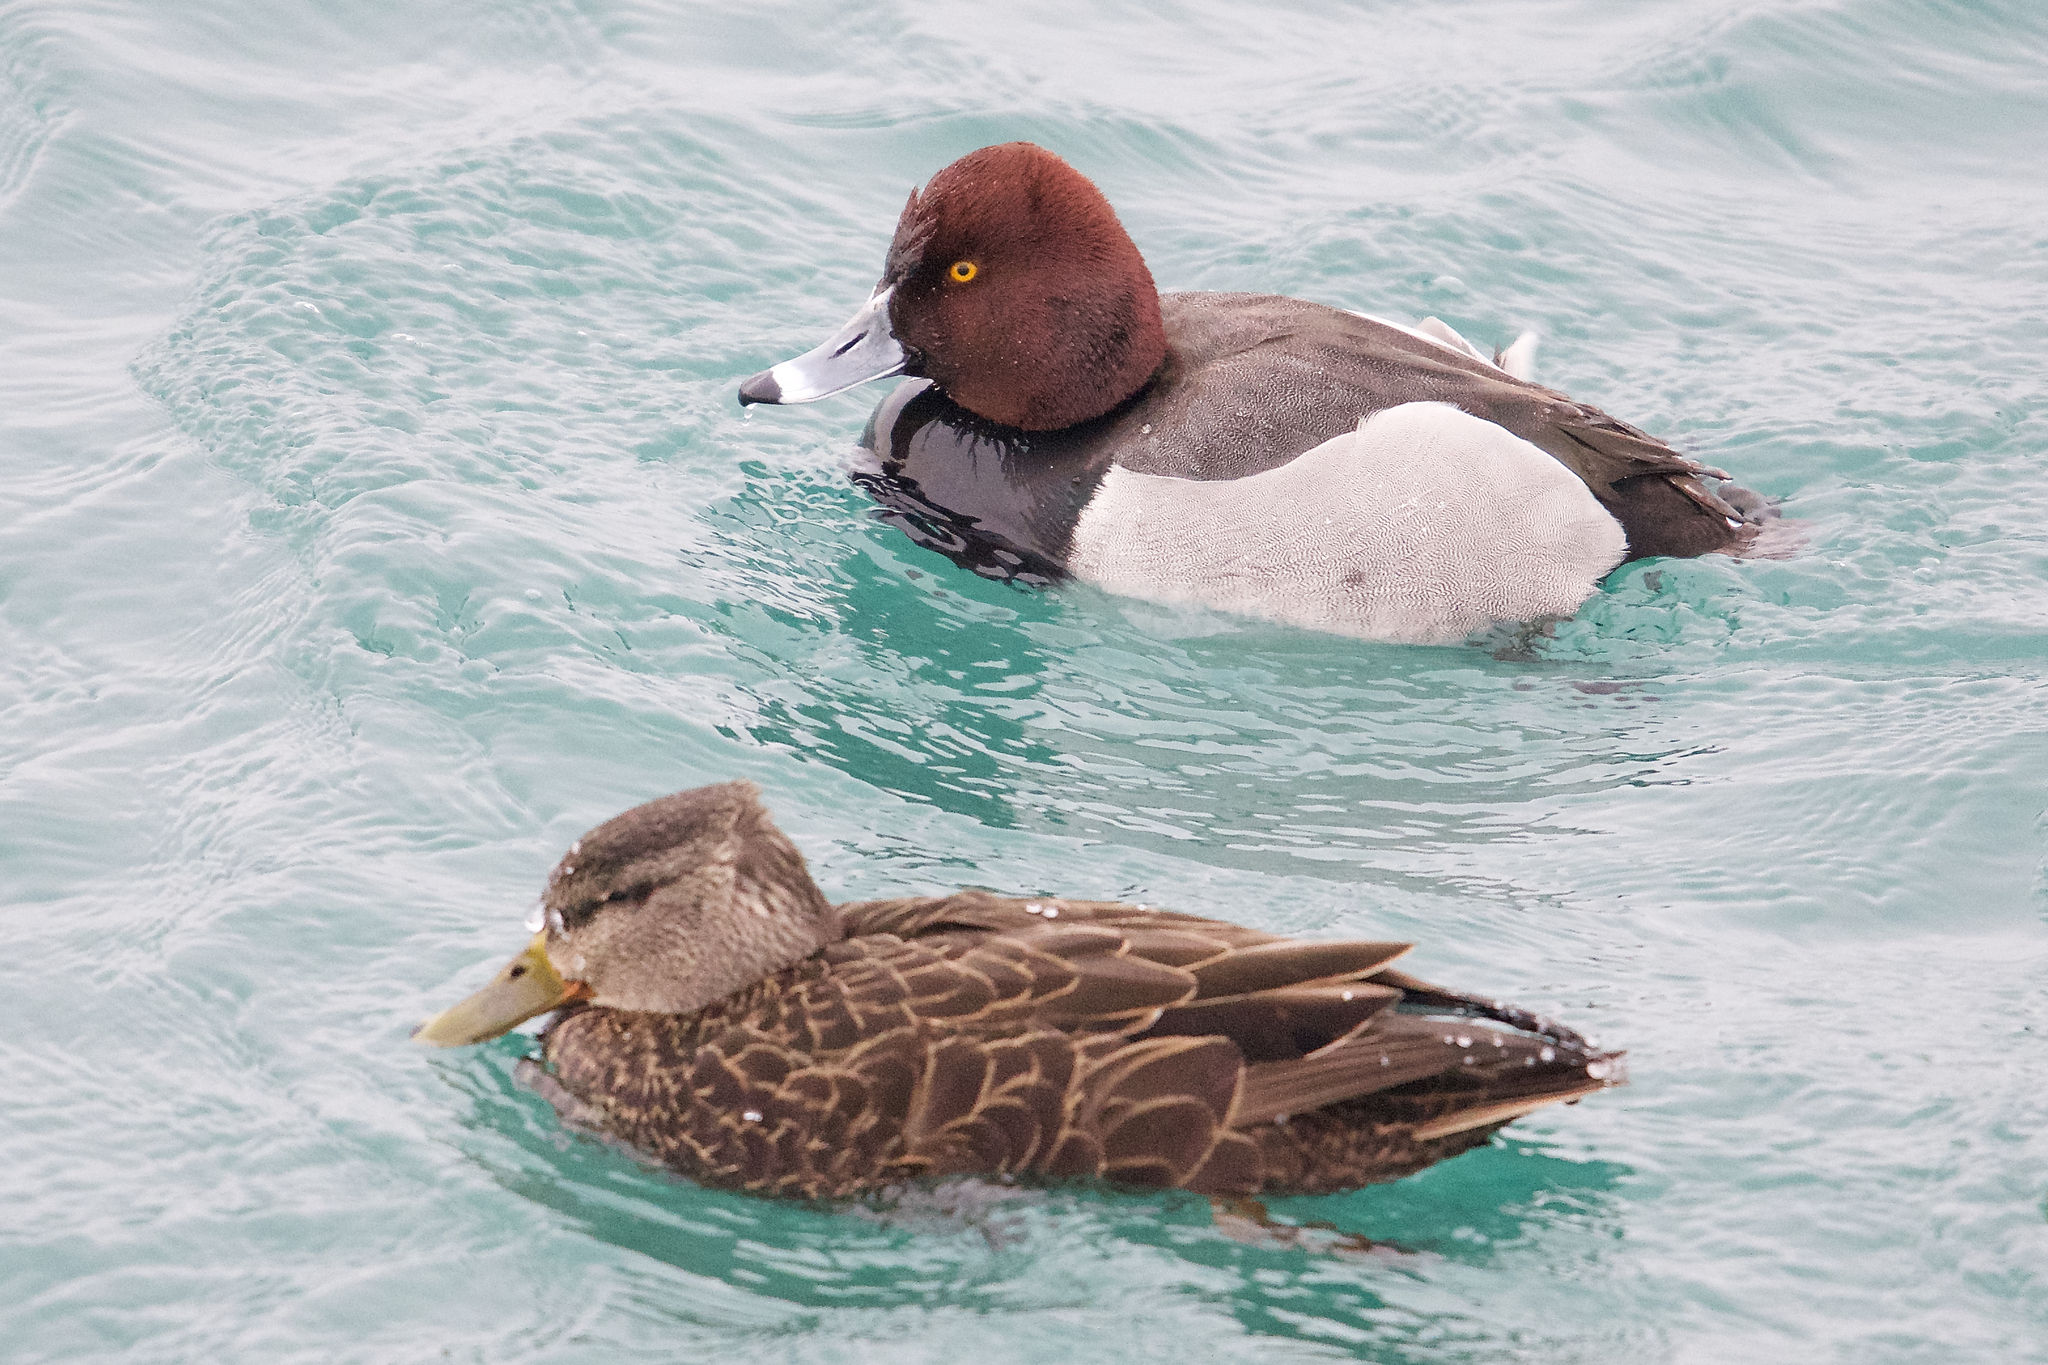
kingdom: Animalia
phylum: Chordata
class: Aves
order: Anseriformes
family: Anatidae
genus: Aythya
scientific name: Aythya
